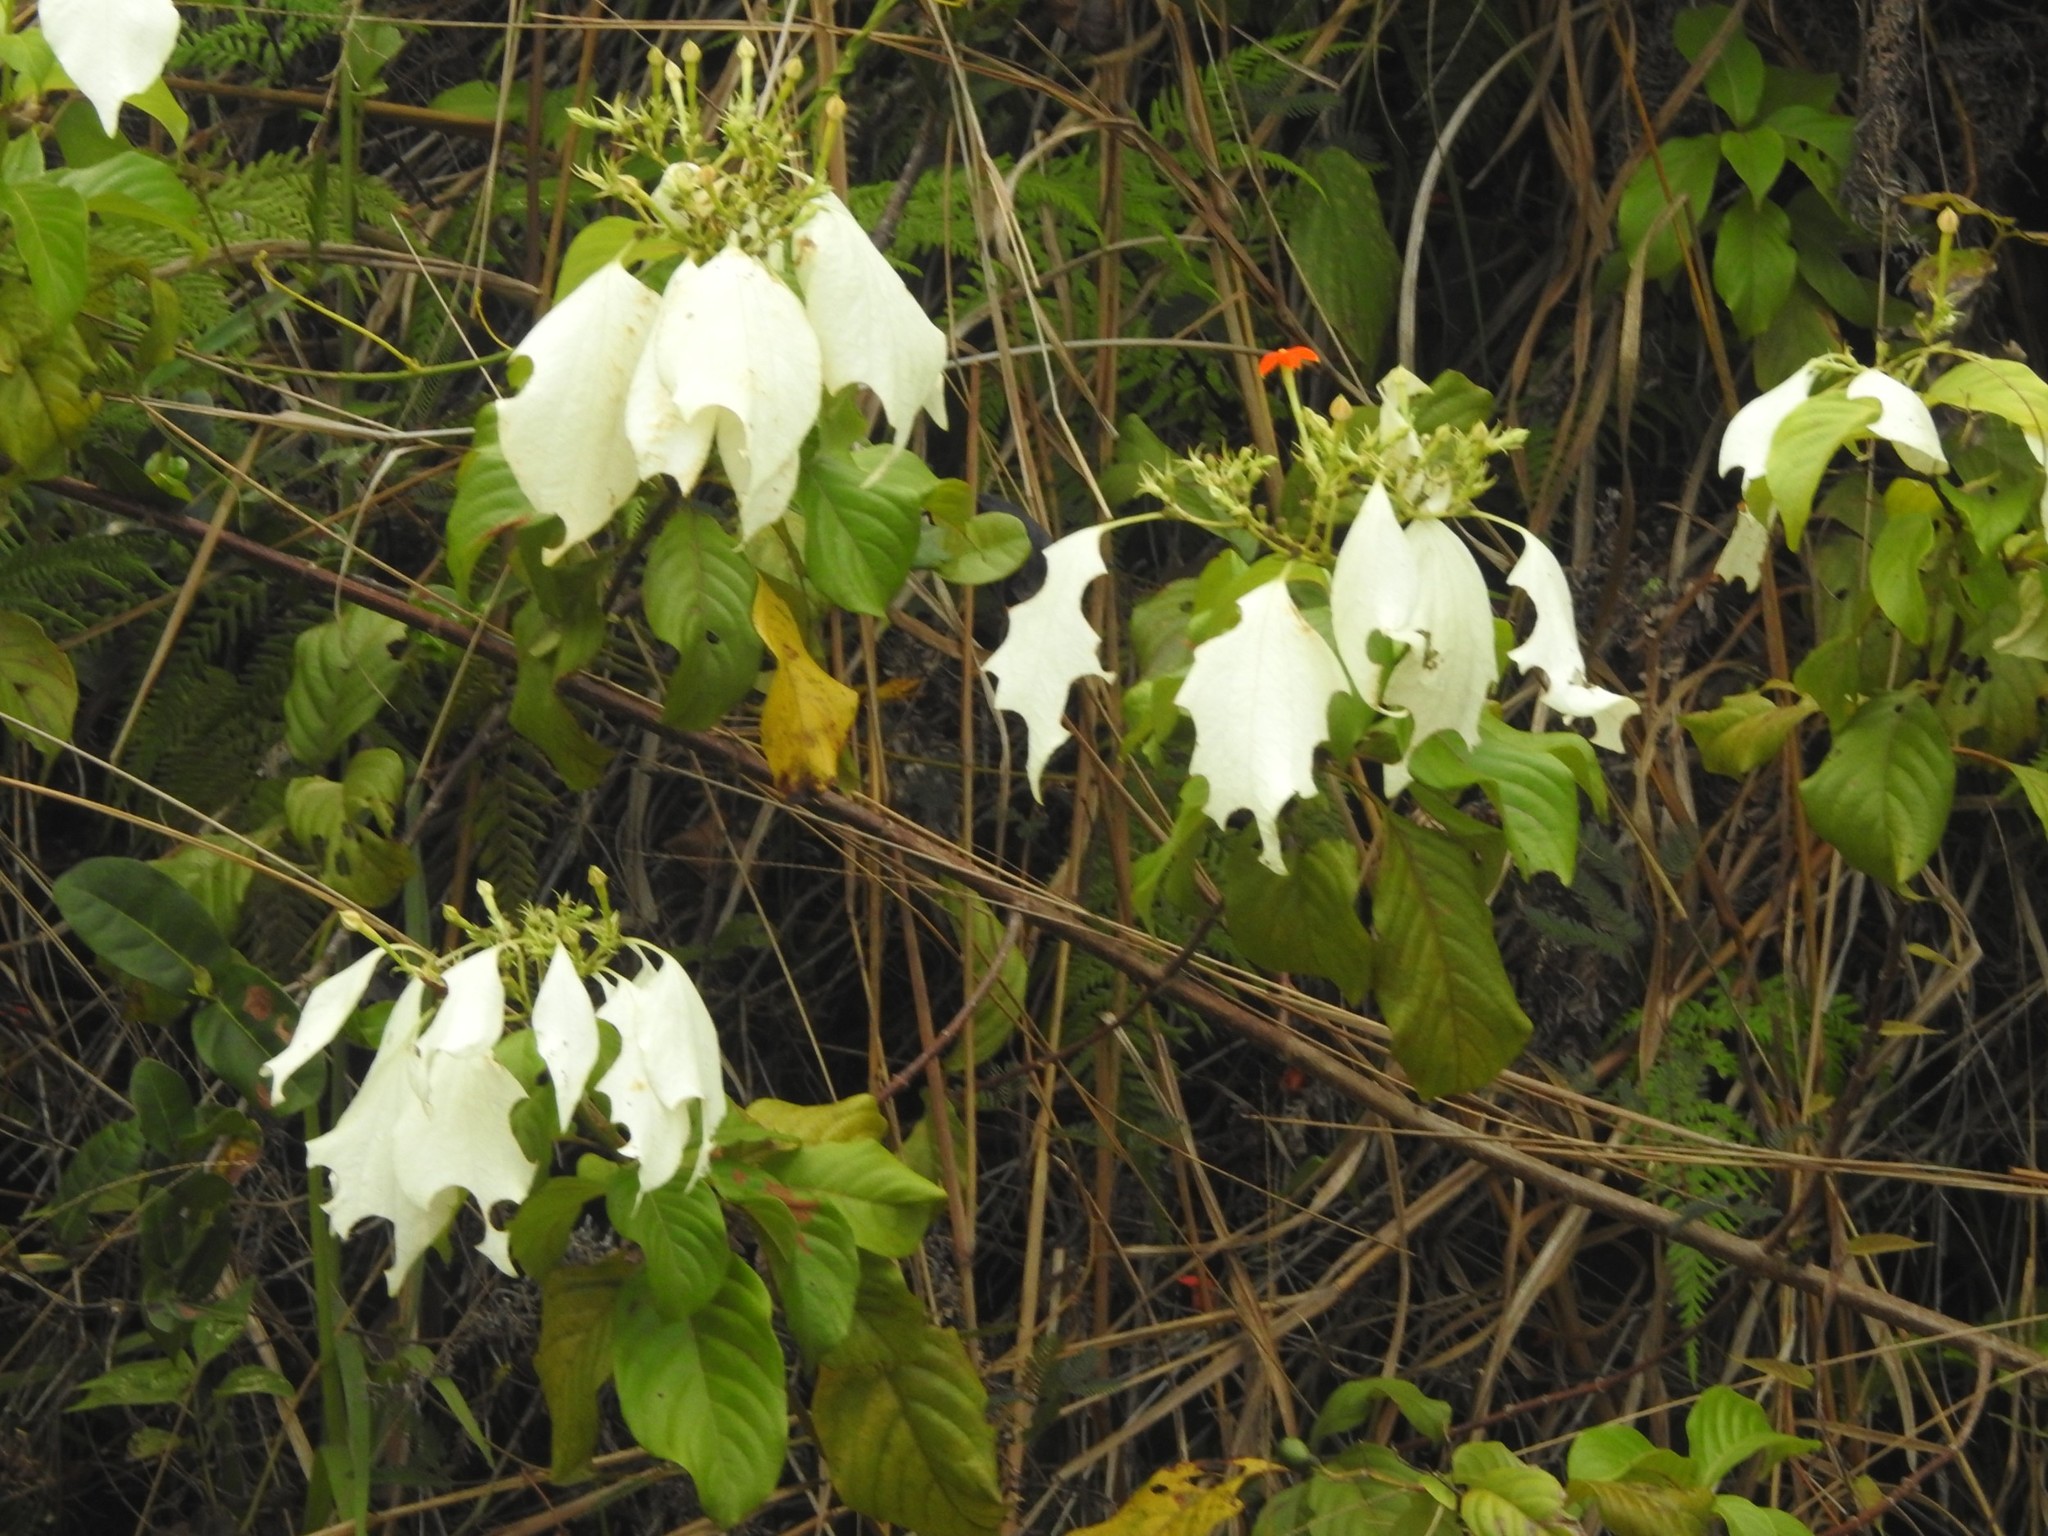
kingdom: Plantae
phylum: Tracheophyta
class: Magnoliopsida
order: Gentianales
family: Rubiaceae
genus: Mussaenda
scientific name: Mussaenda frondosa
